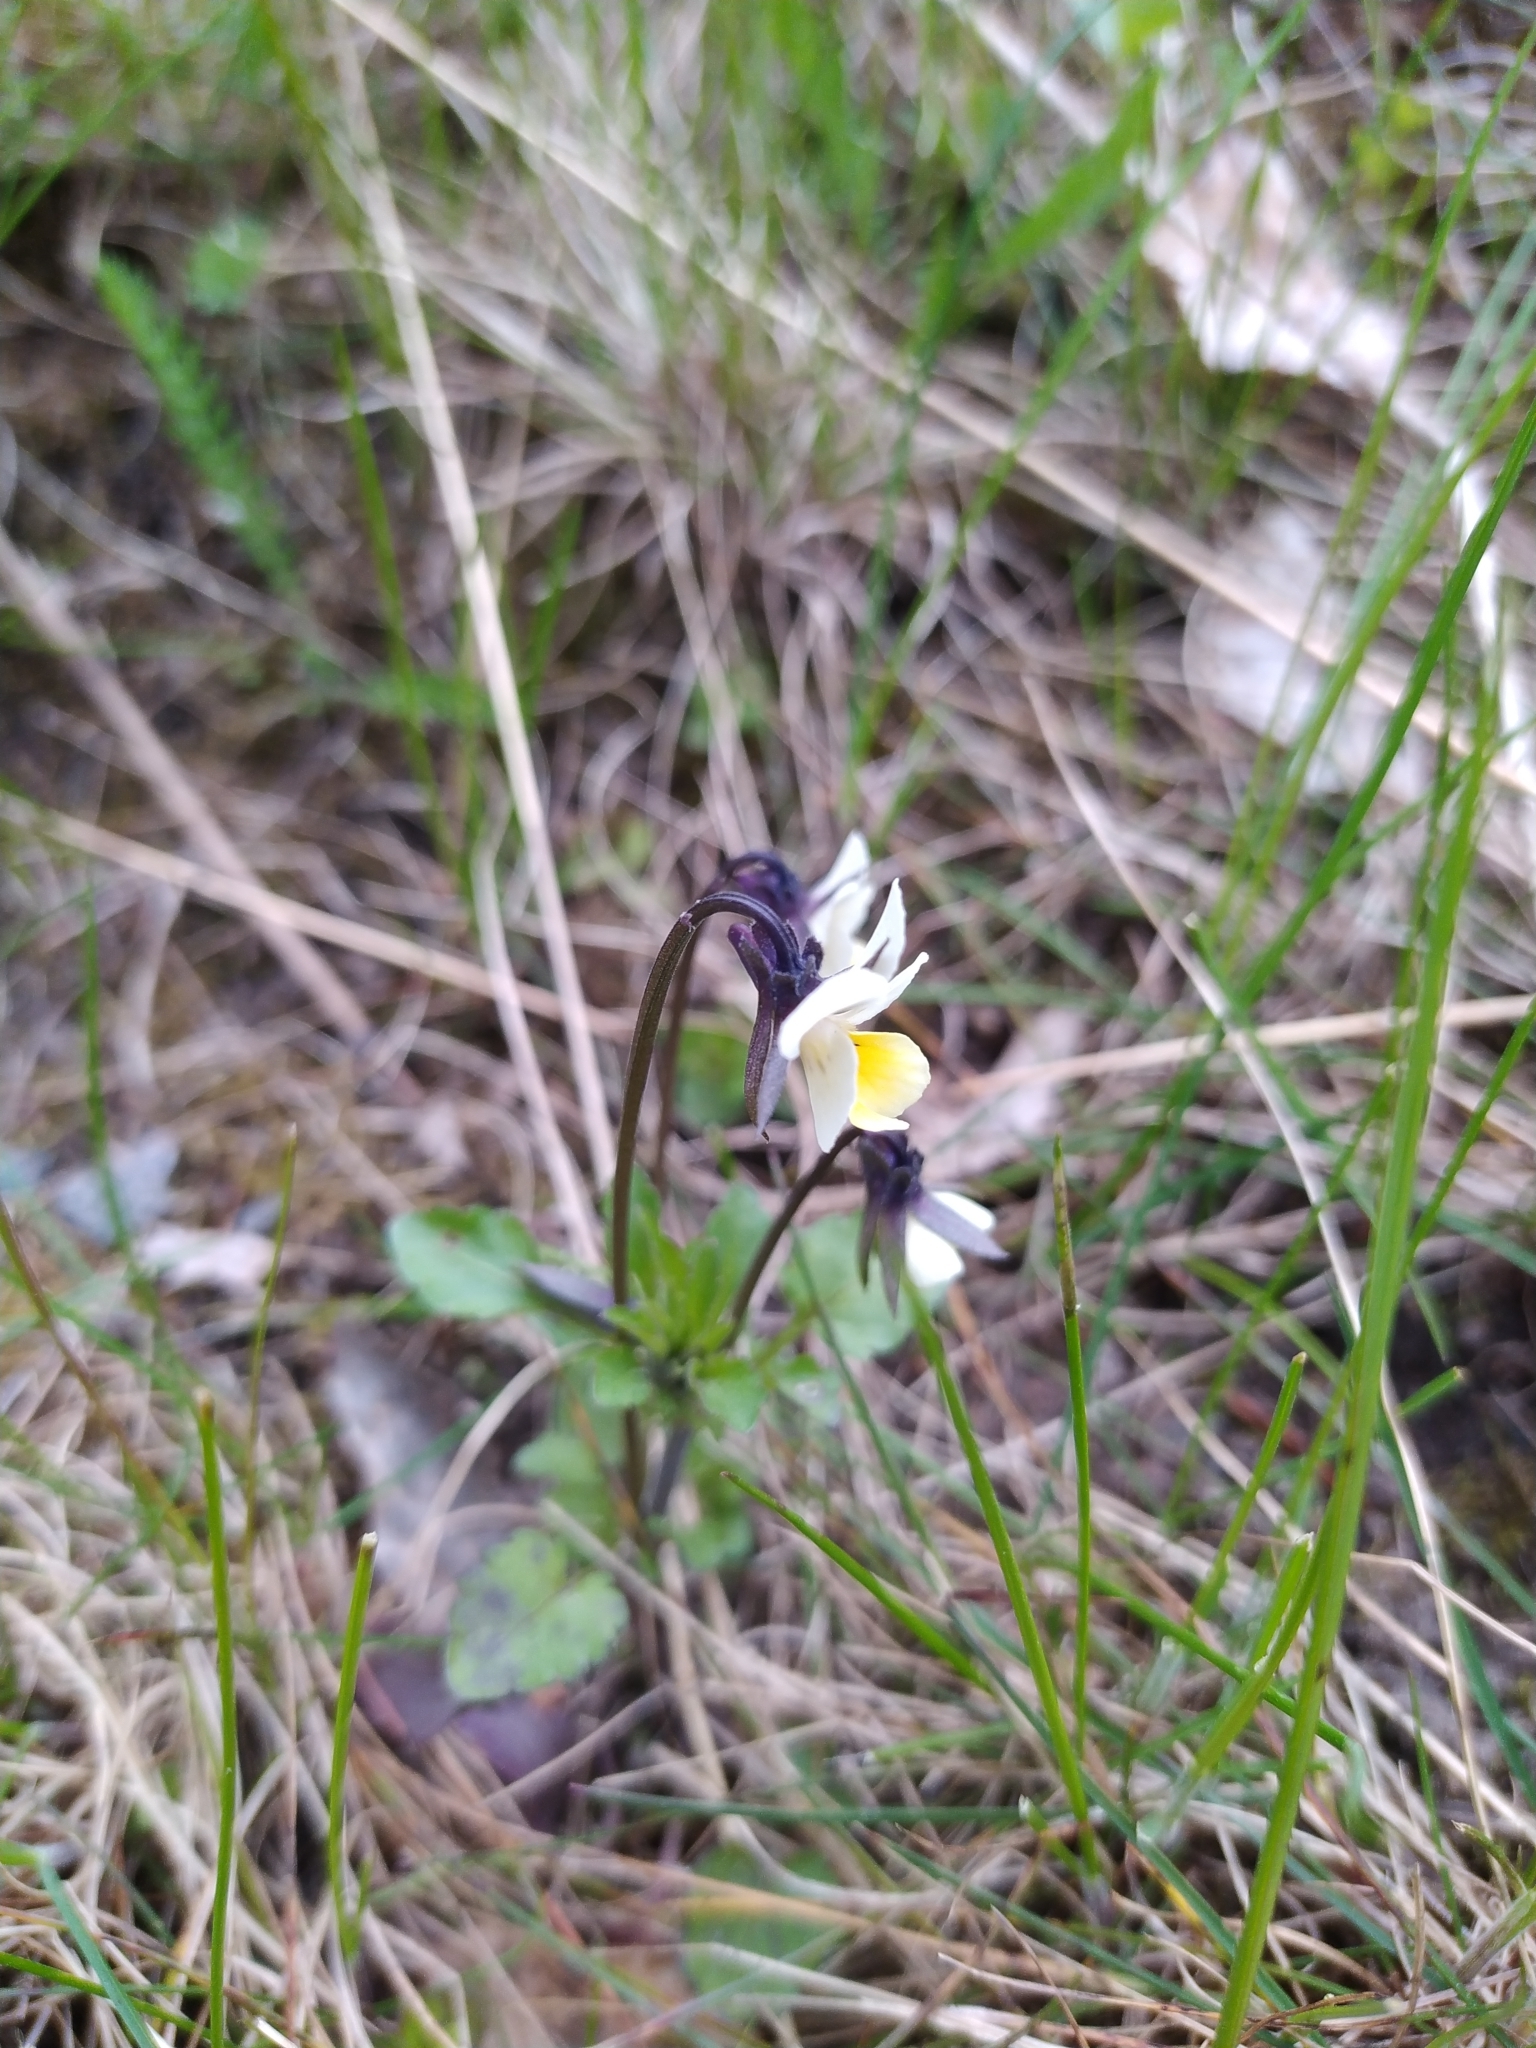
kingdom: Plantae
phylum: Tracheophyta
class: Magnoliopsida
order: Malpighiales
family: Violaceae
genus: Viola
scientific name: Viola arvensis
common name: Field pansy
